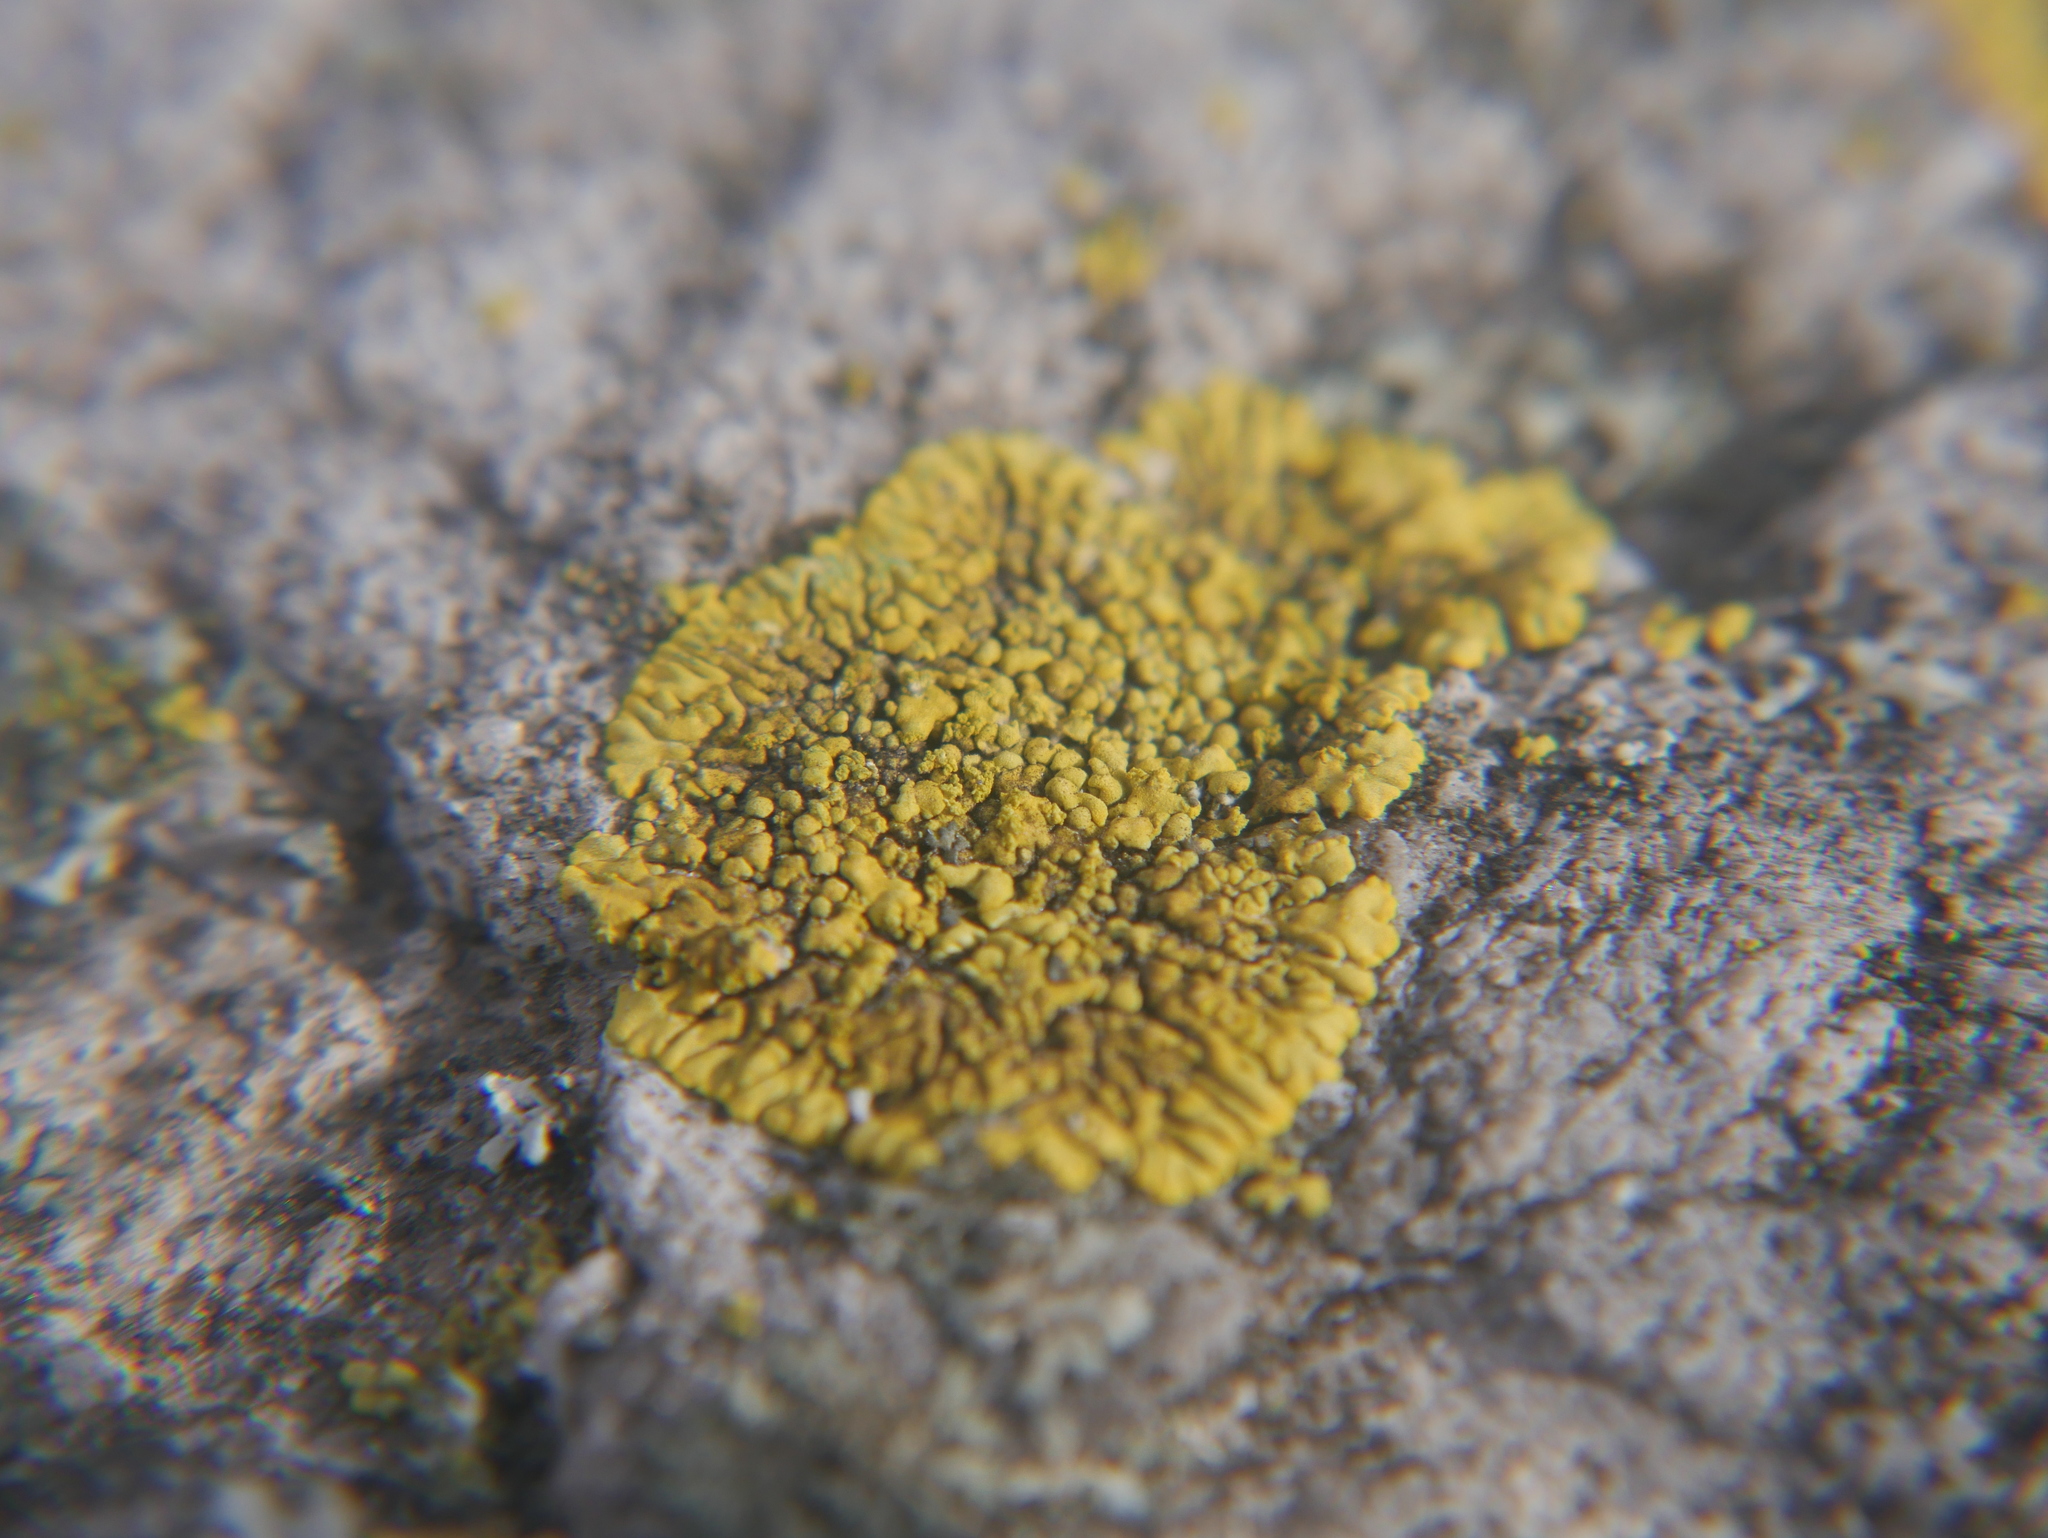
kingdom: Fungi
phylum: Ascomycota
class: Lecanoromycetes
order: Teloschistales
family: Teloschistaceae
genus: Calogaya
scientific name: Calogaya decipiens
